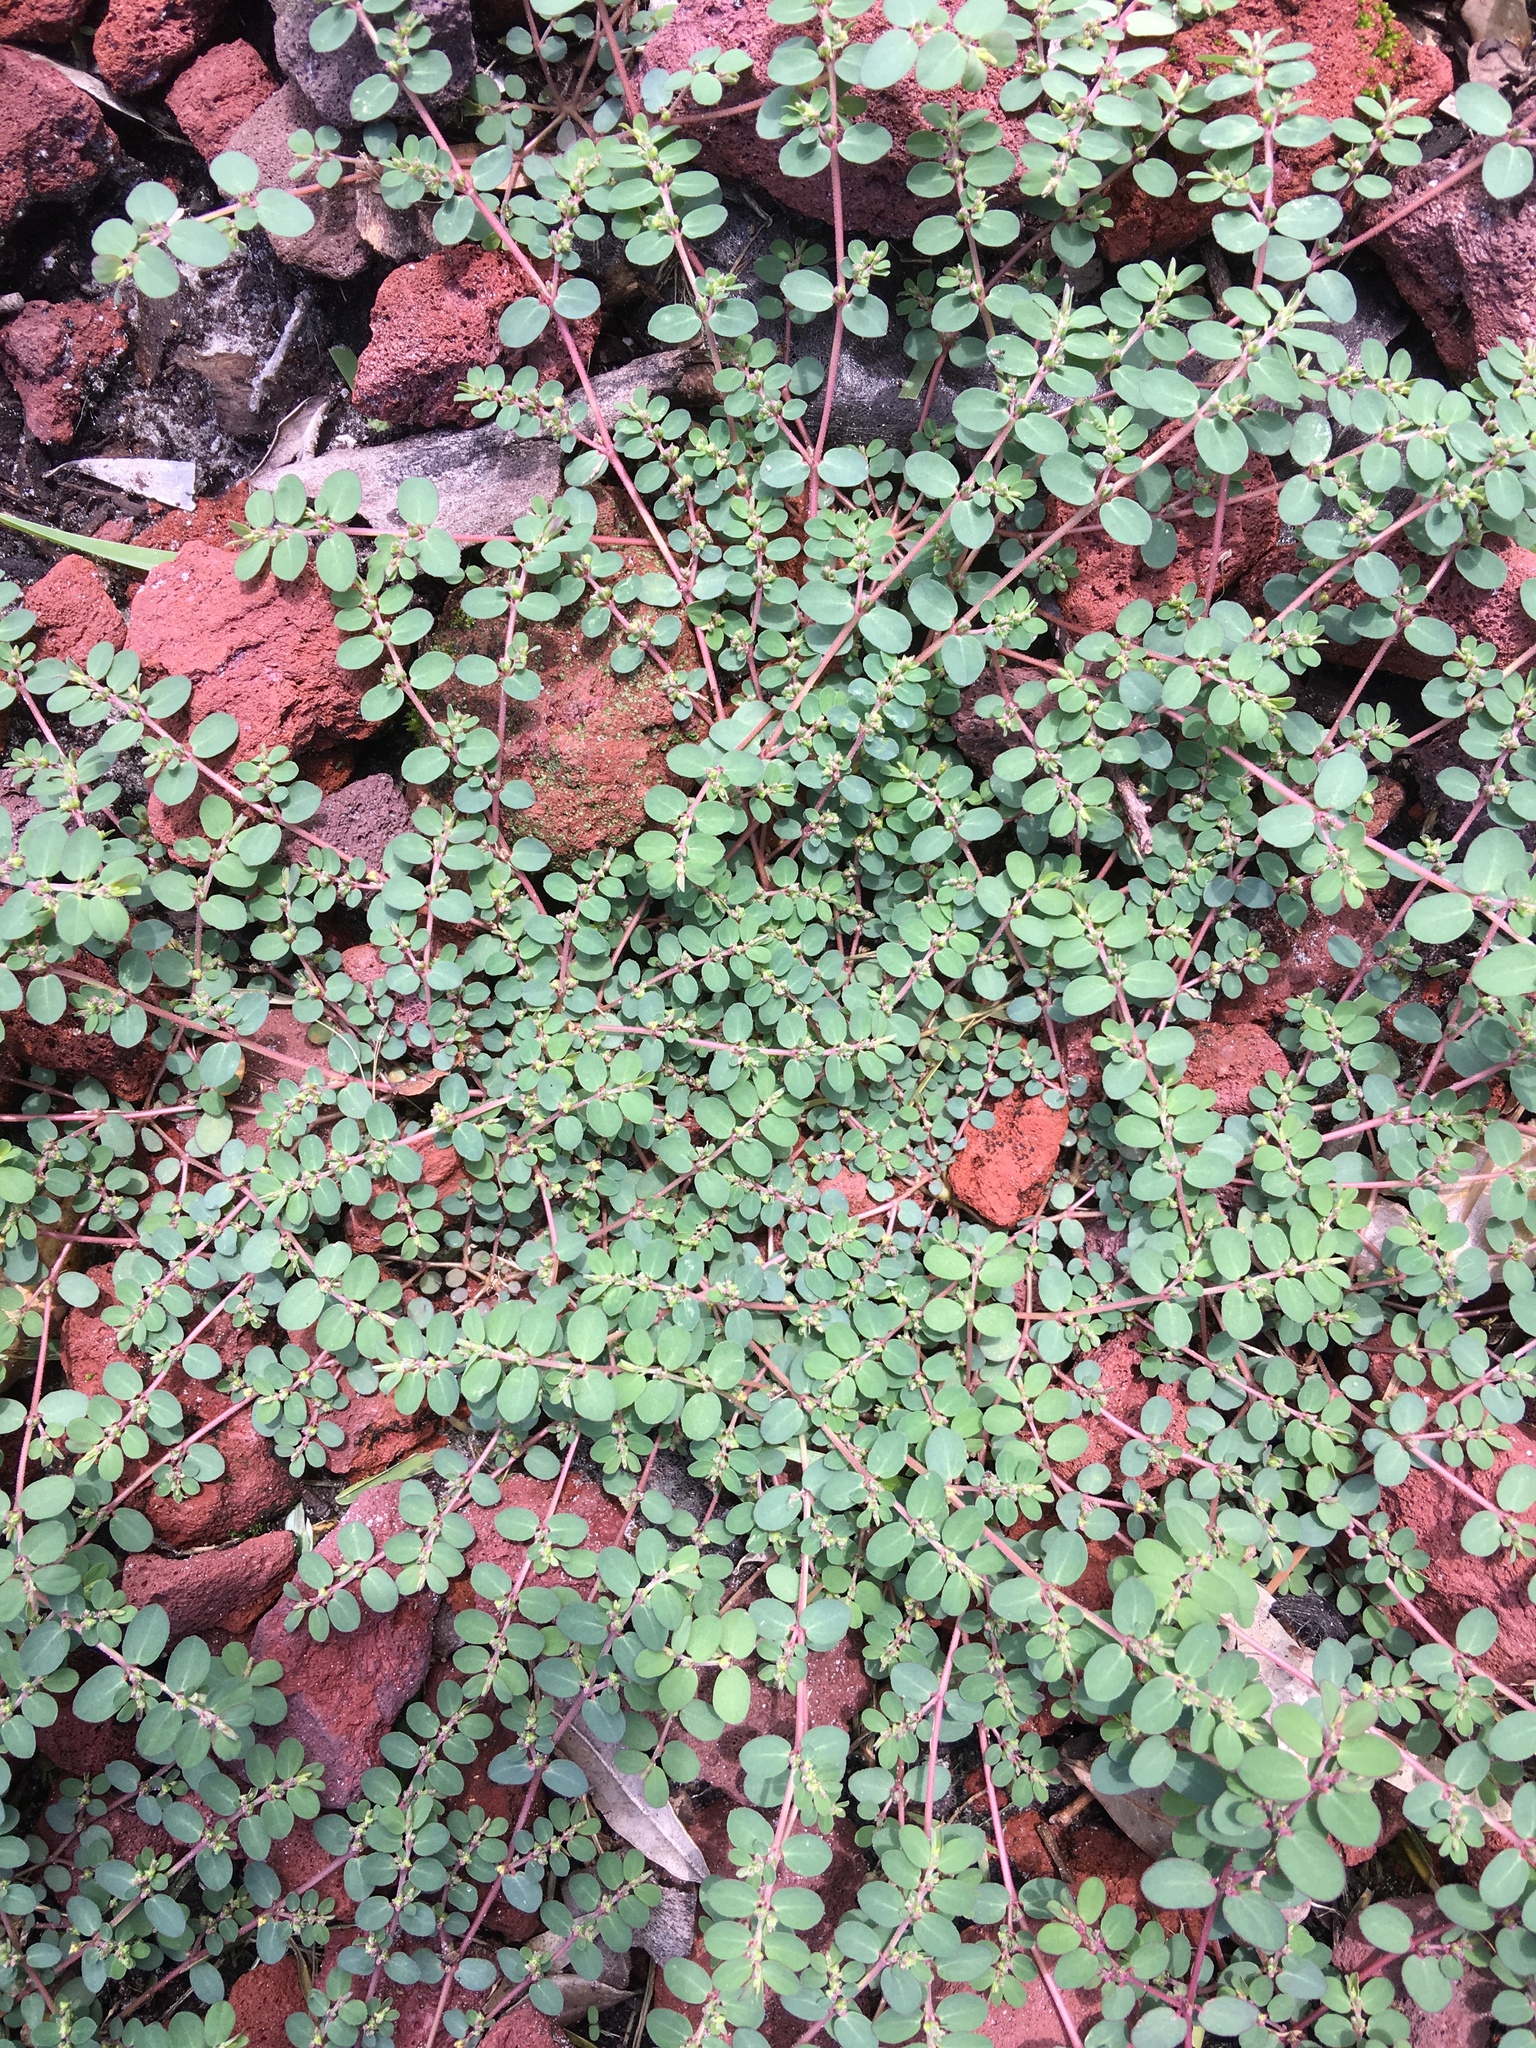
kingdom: Plantae
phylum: Tracheophyta
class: Magnoliopsida
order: Malpighiales
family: Euphorbiaceae
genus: Euphorbia
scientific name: Euphorbia prostrata
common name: Prostrate sandmat
